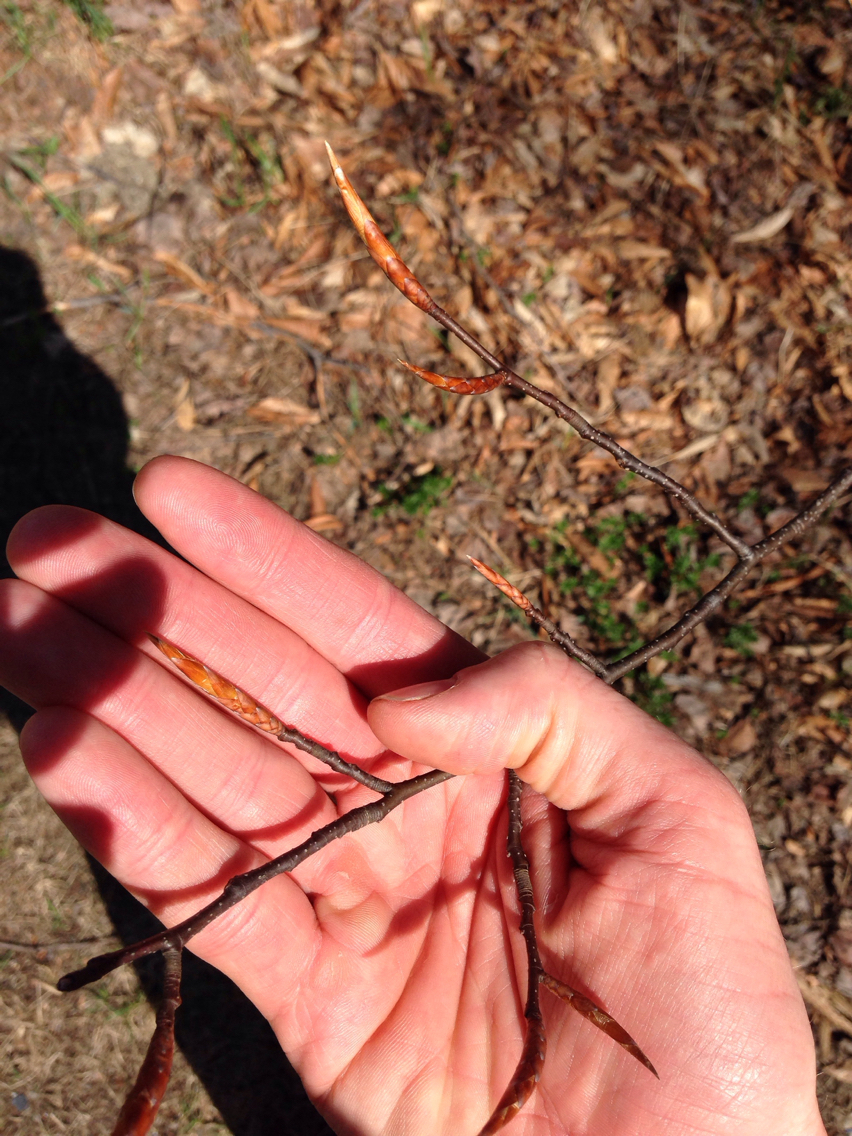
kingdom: Plantae
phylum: Tracheophyta
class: Magnoliopsida
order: Fagales
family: Fagaceae
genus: Fagus
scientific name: Fagus grandifolia
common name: American beech
